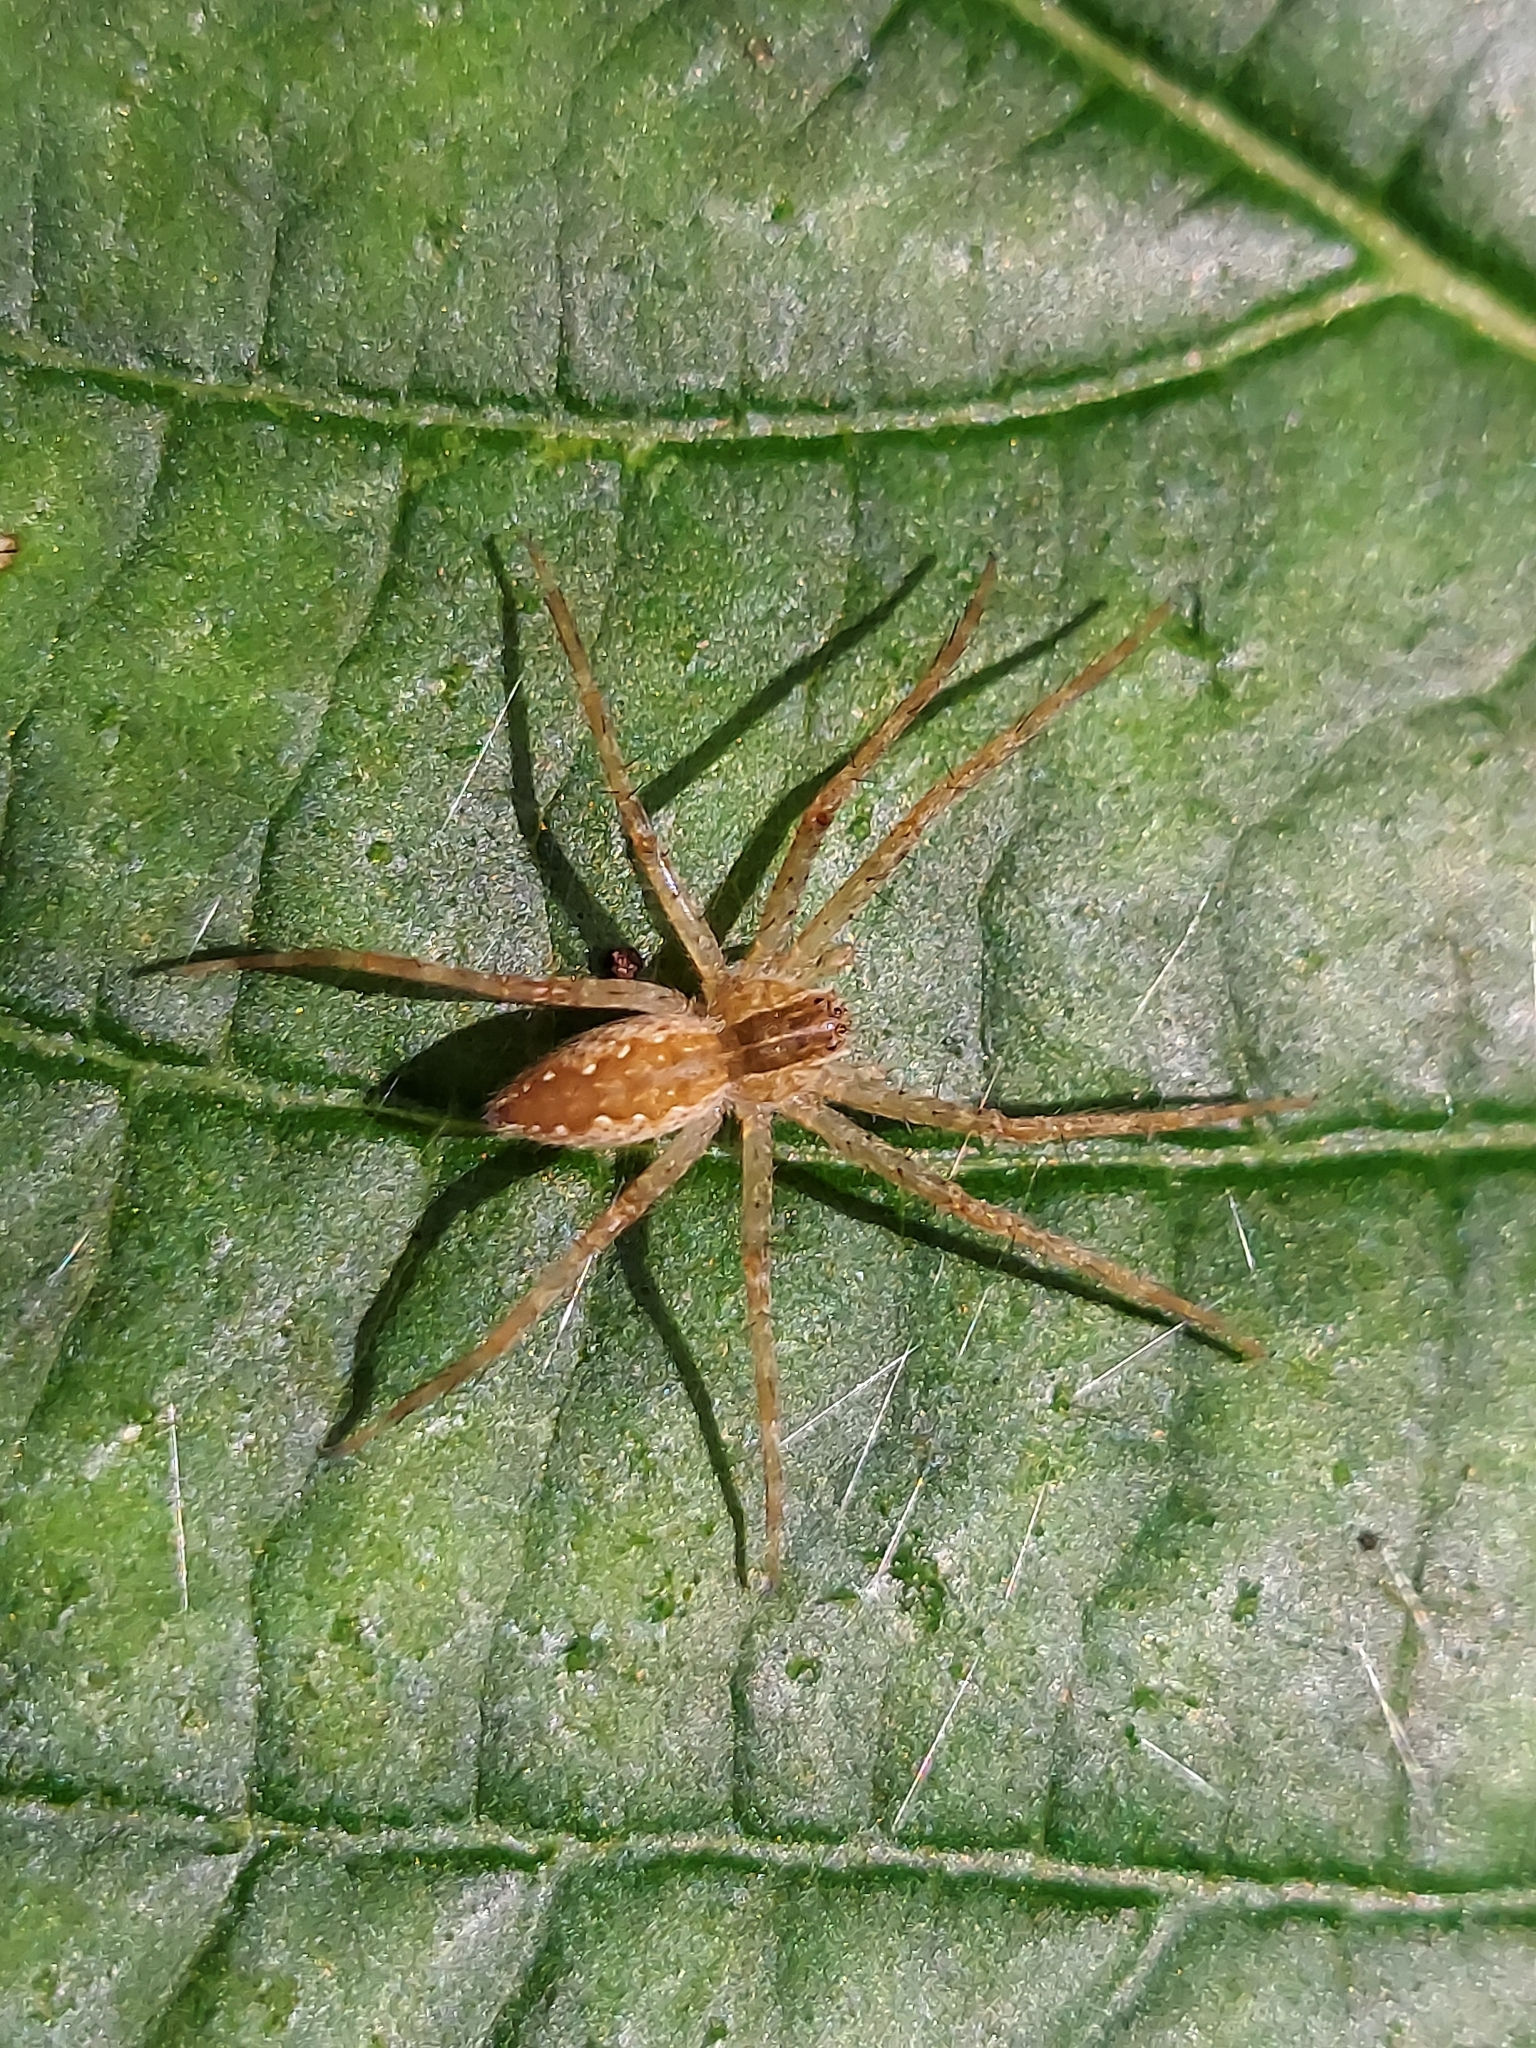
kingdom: Animalia
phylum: Arthropoda
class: Arachnida
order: Araneae
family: Pisauridae
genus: Pisaurina
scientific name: Pisaurina mira
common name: American nursery web spider
